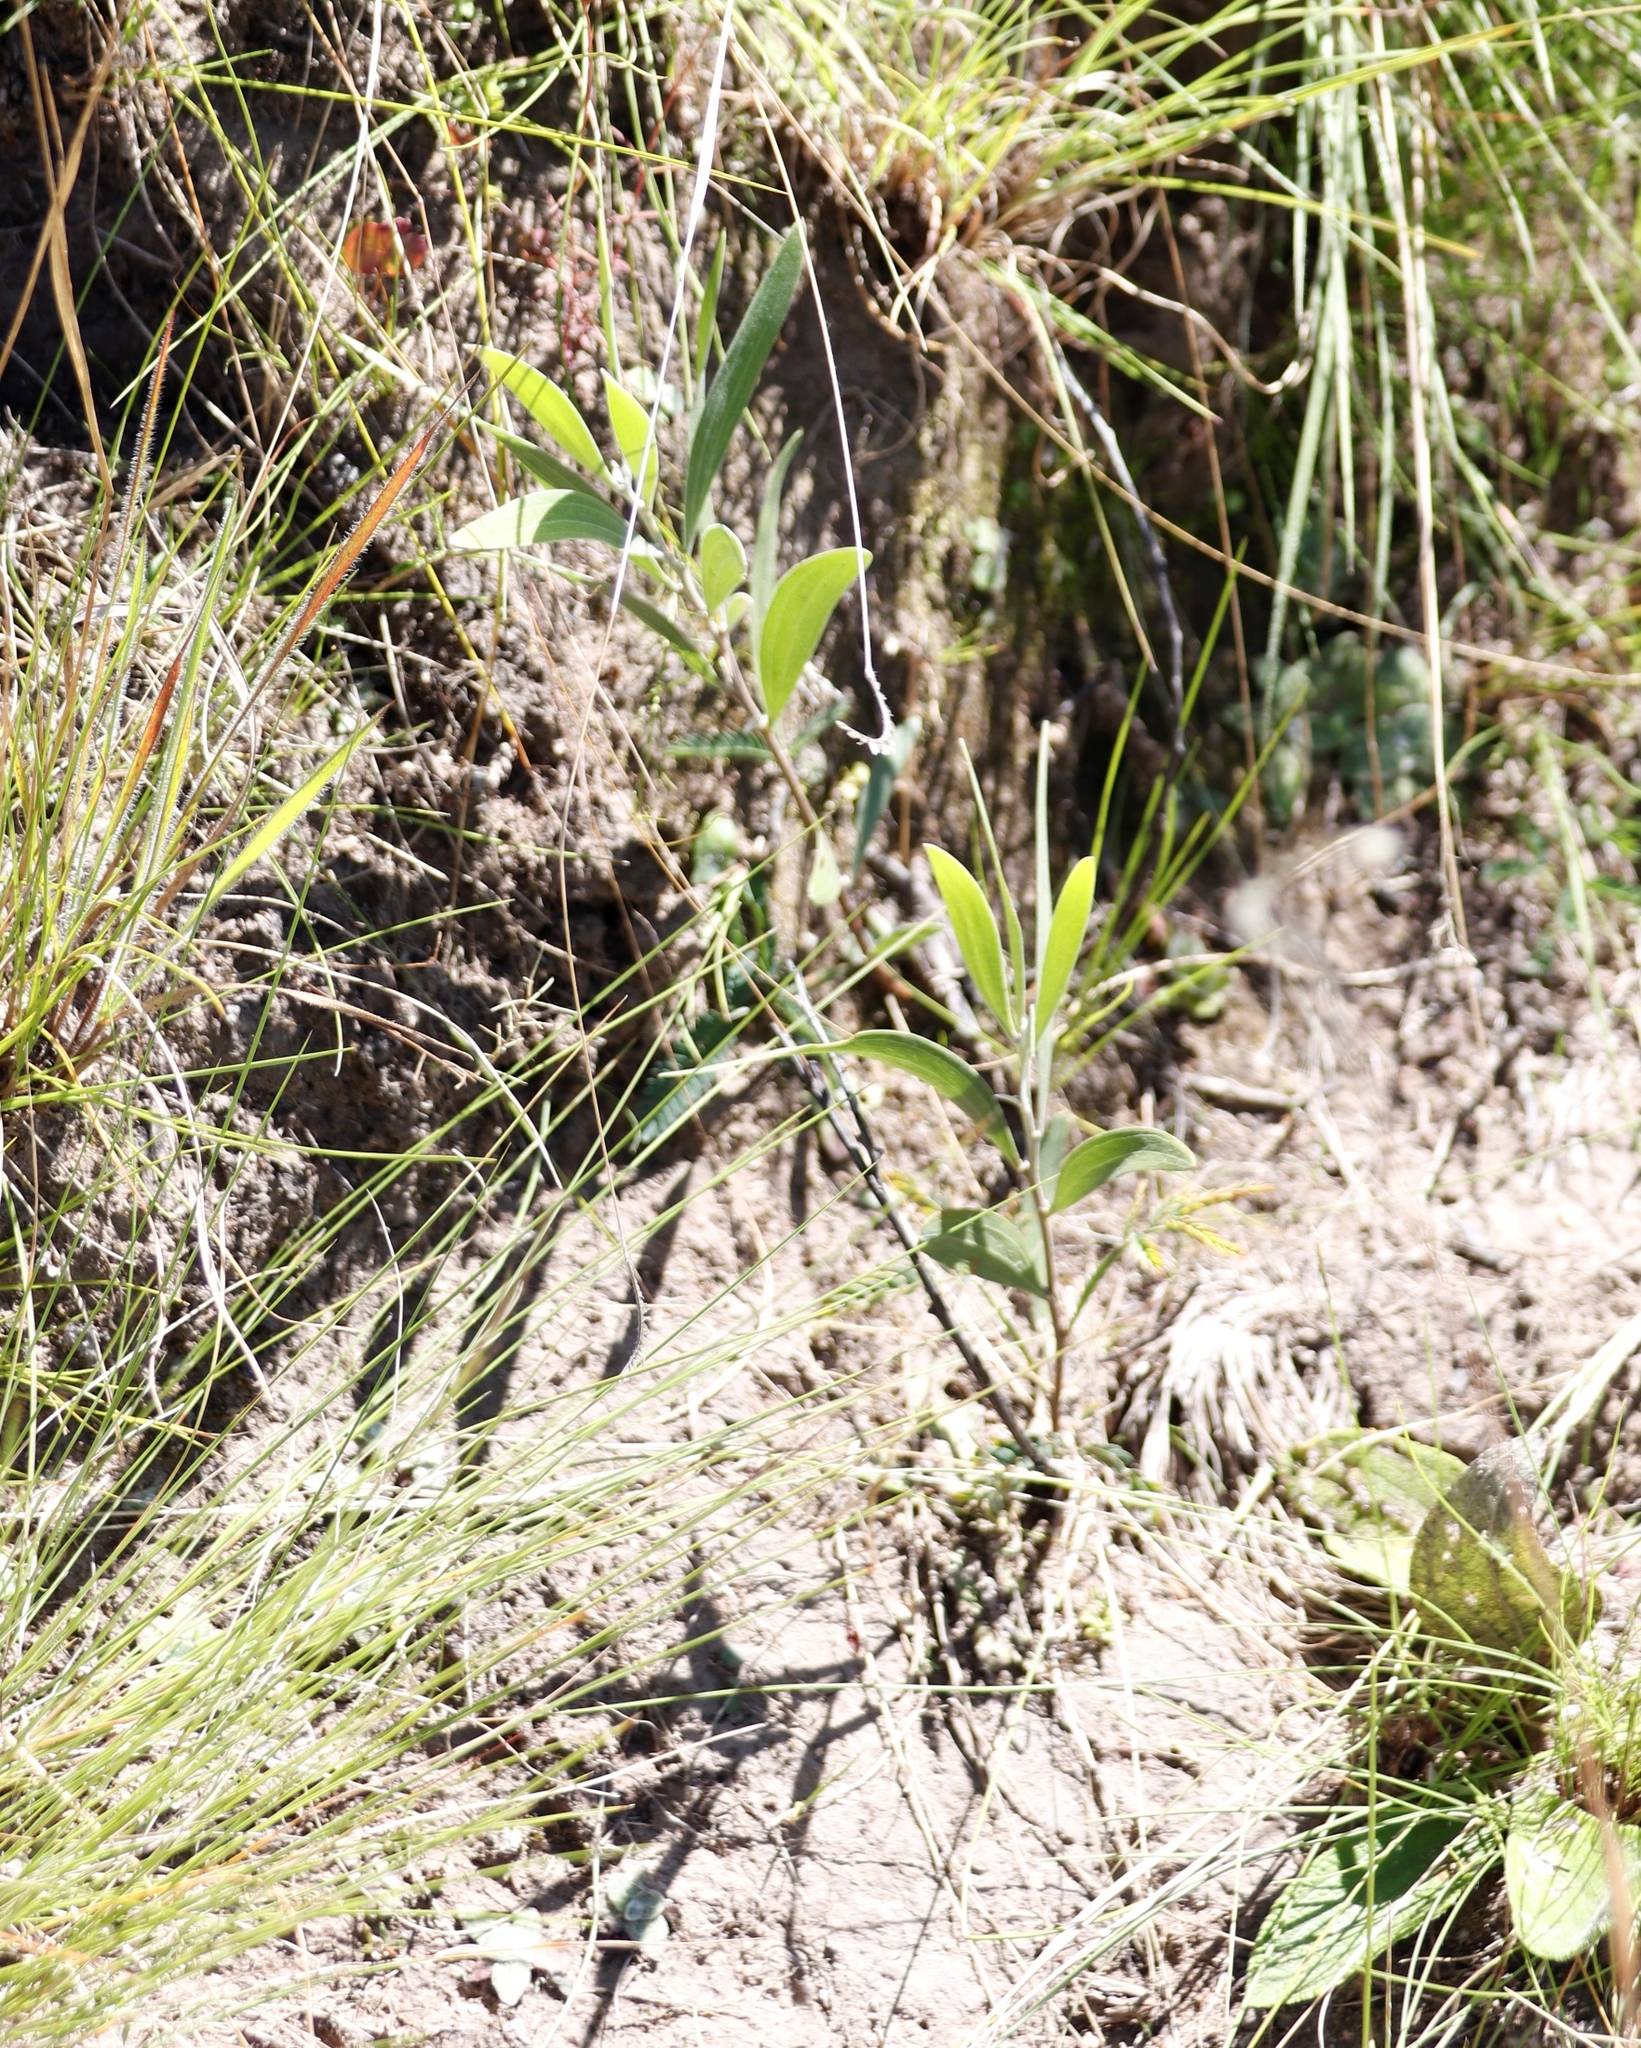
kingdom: Plantae
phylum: Tracheophyta
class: Magnoliopsida
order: Fabales
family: Fabaceae
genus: Acacia
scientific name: Acacia melanoxylon
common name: Blackwood
